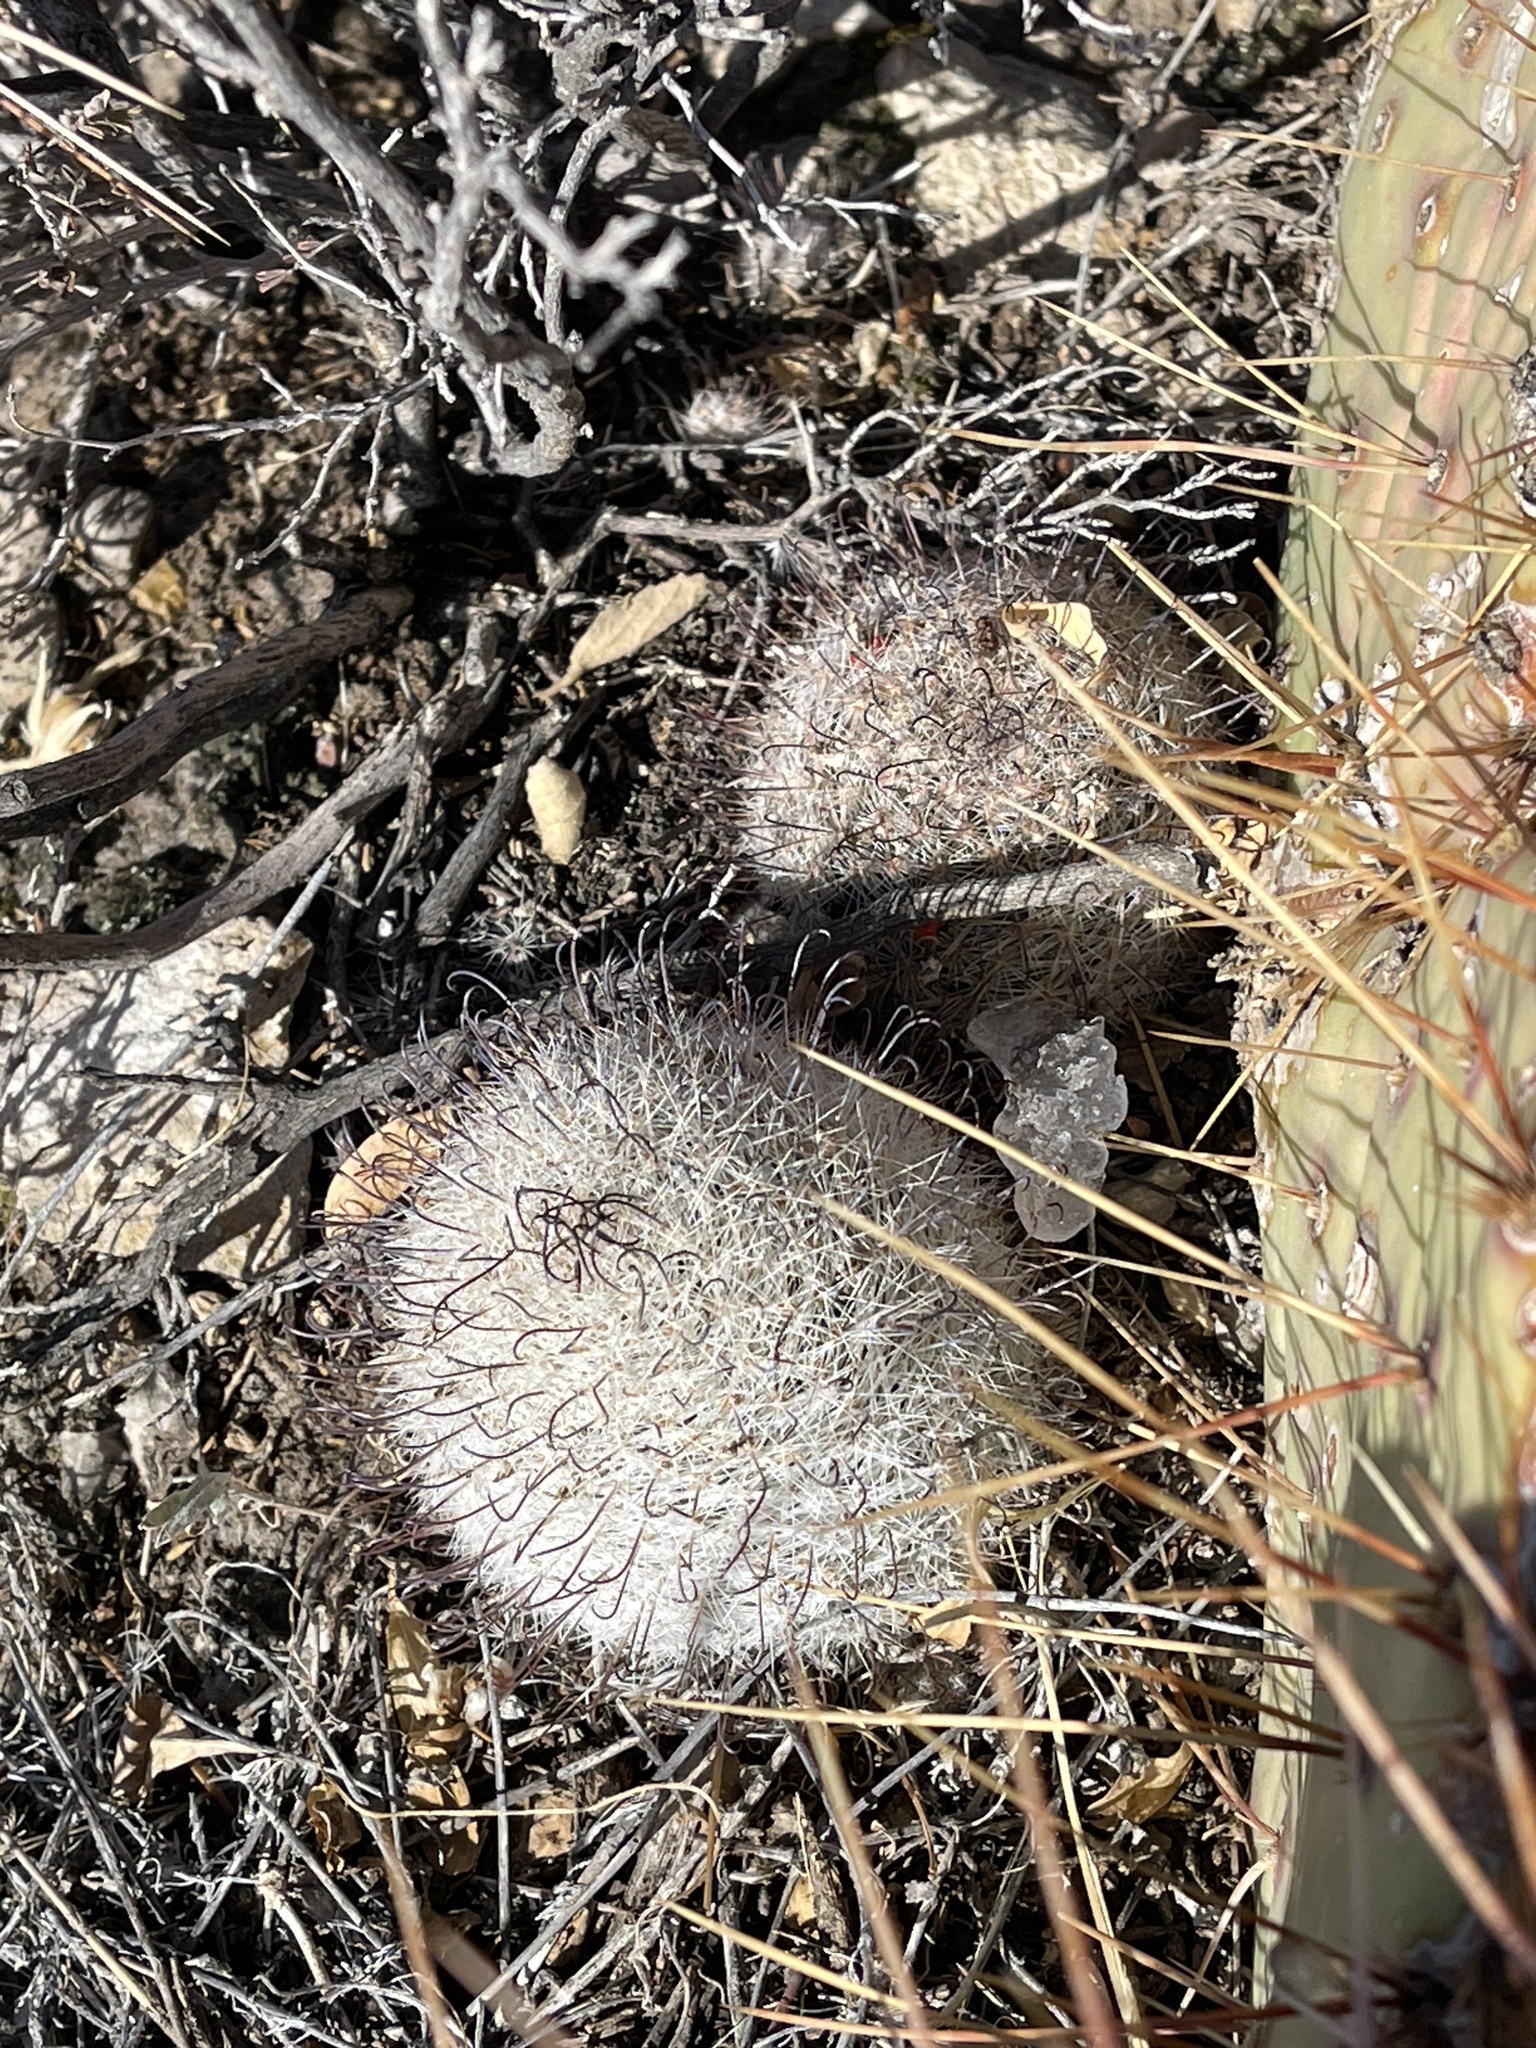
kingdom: Plantae
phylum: Tracheophyta
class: Magnoliopsida
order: Caryophyllales
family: Cactaceae
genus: Cochemiea
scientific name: Cochemiea grahamii
